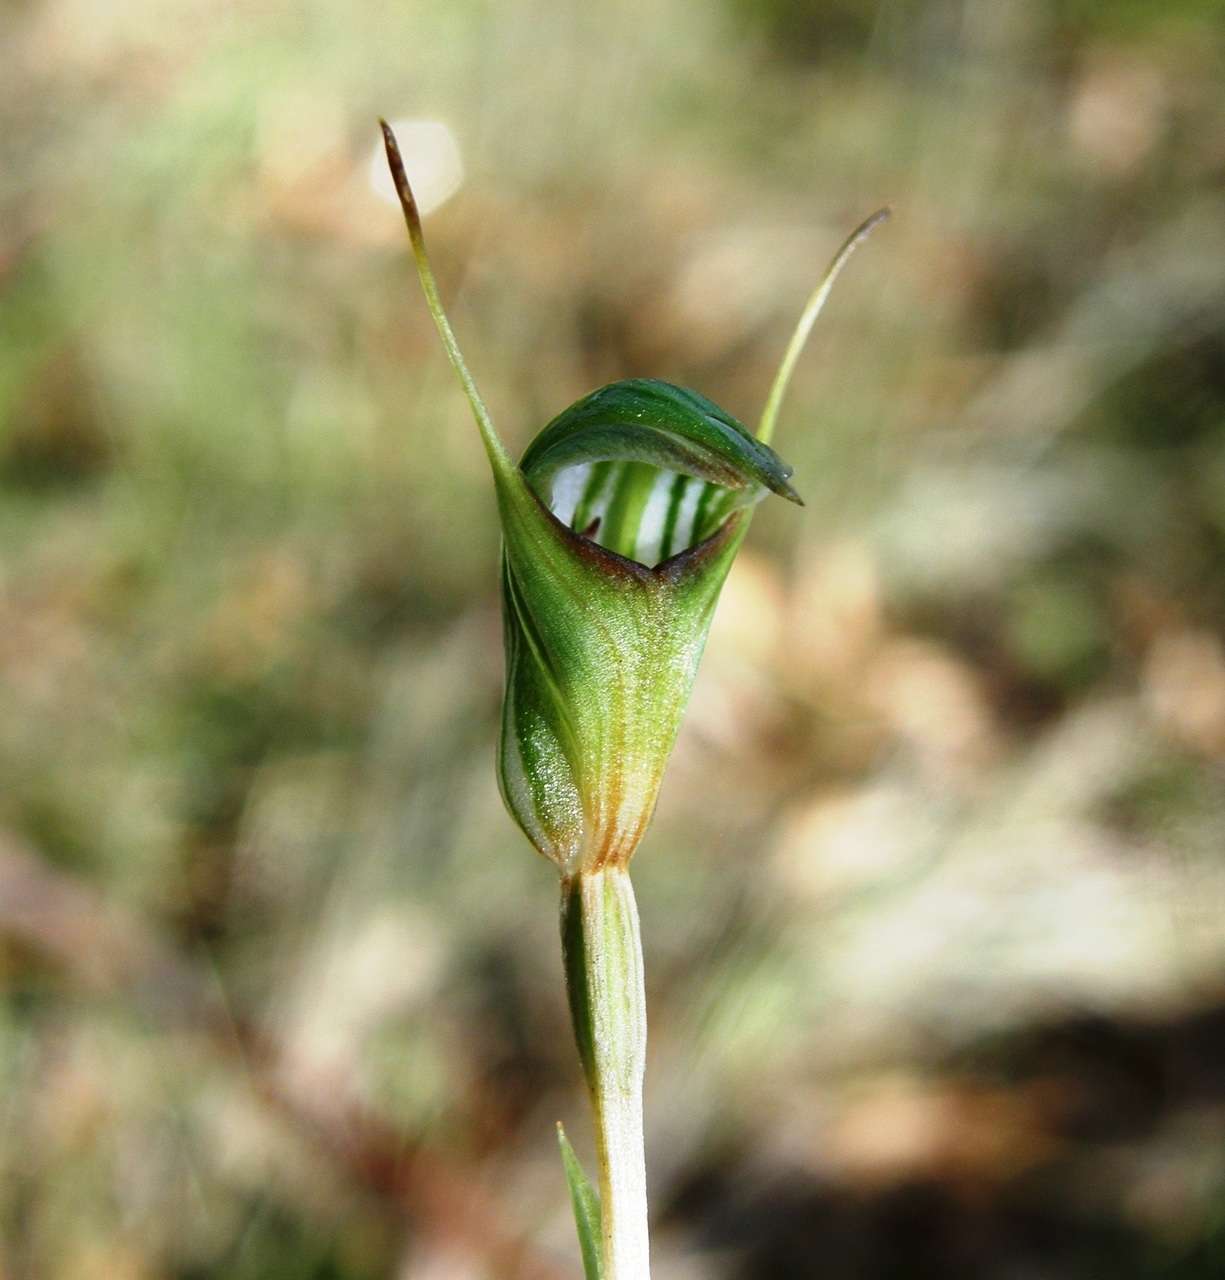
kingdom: Plantae
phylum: Tracheophyta
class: Liliopsida
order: Asparagales
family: Orchidaceae
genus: Pterostylis
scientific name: Pterostylis concinna
